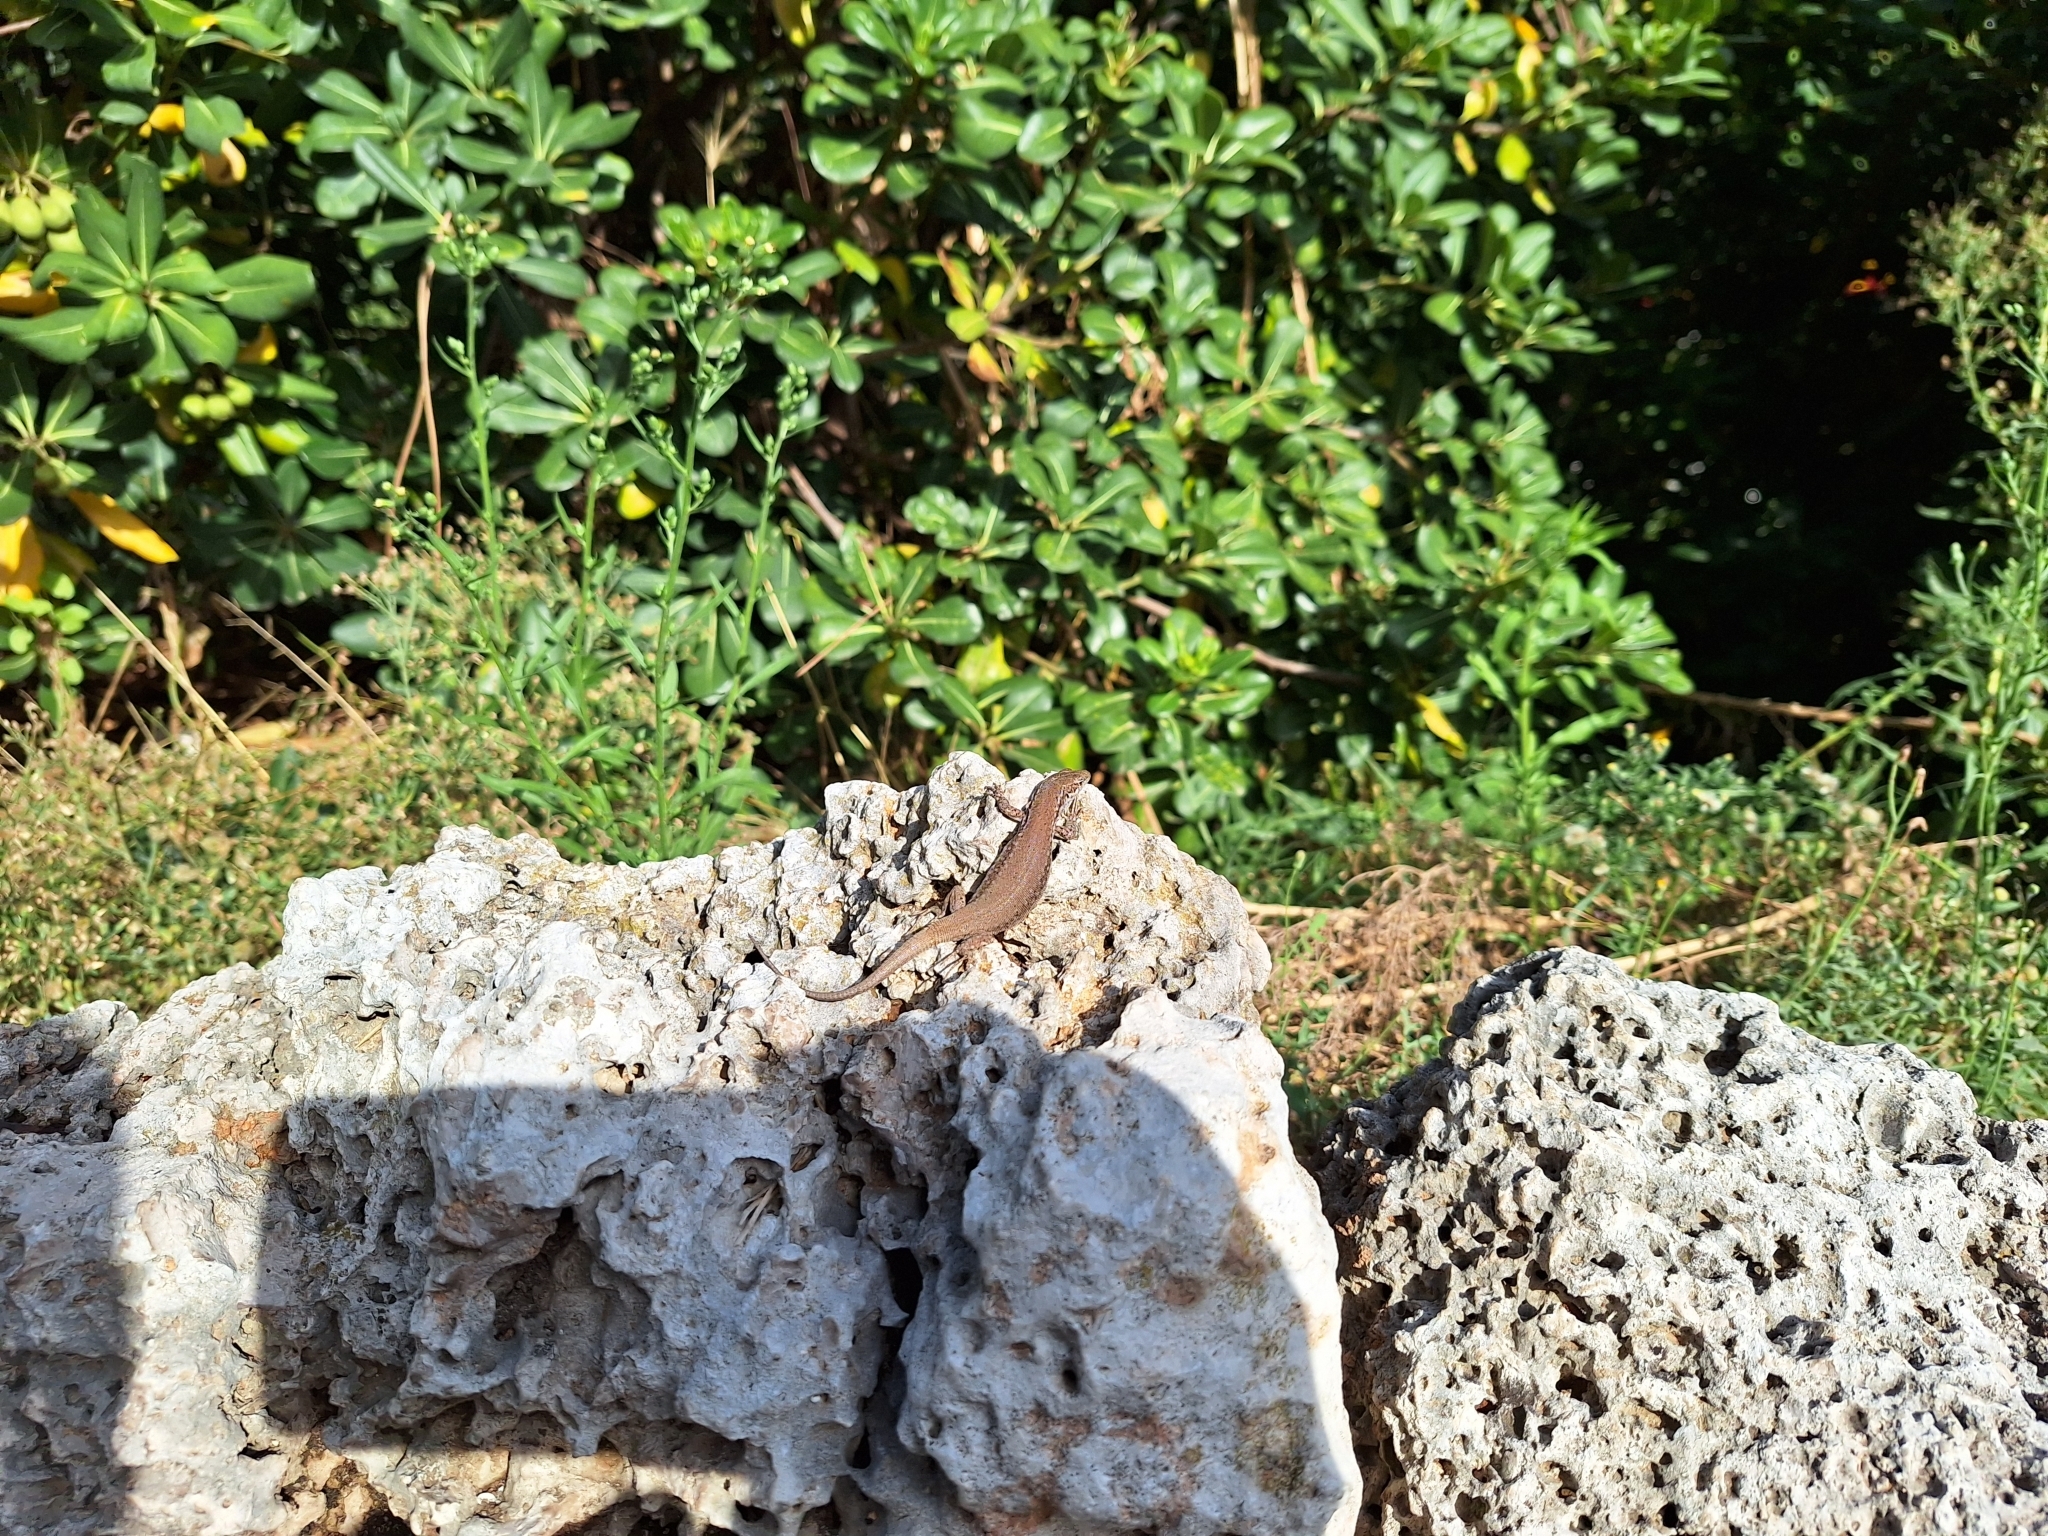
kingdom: Animalia
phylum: Chordata
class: Squamata
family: Lacertidae
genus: Podarcis
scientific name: Podarcis virescens
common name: Geniez’s wall lizard
